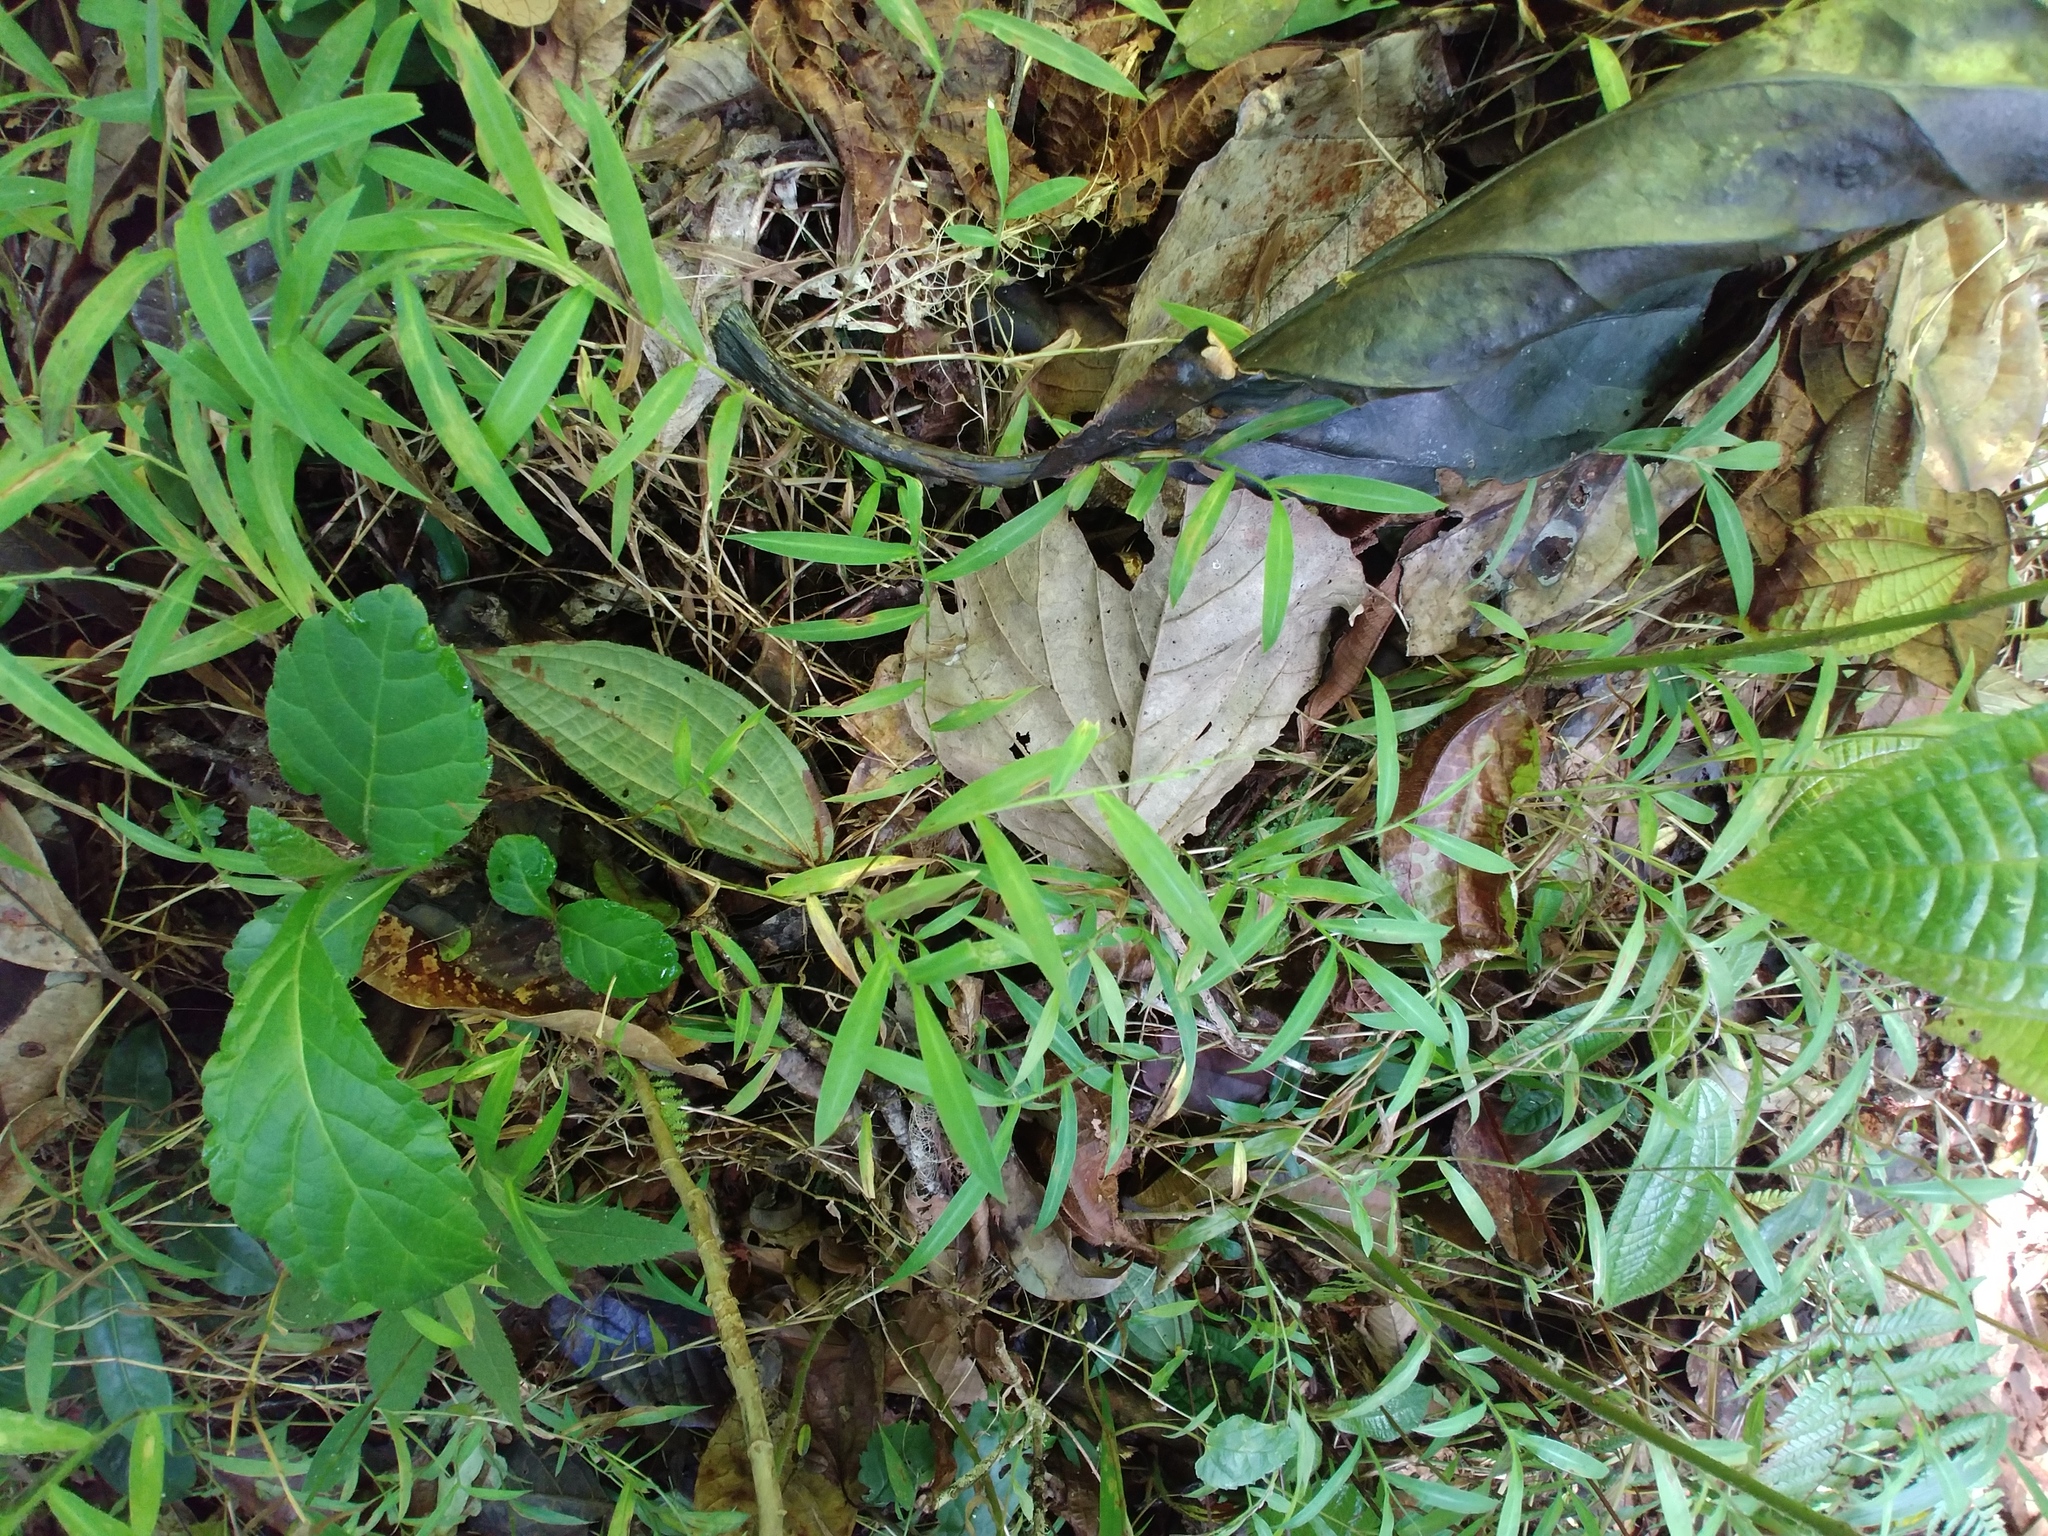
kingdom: Plantae
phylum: Tracheophyta
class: Liliopsida
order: Poales
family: Poaceae
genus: Urochloa
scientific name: Urochloa Brachiaria tsiafajavonensis
